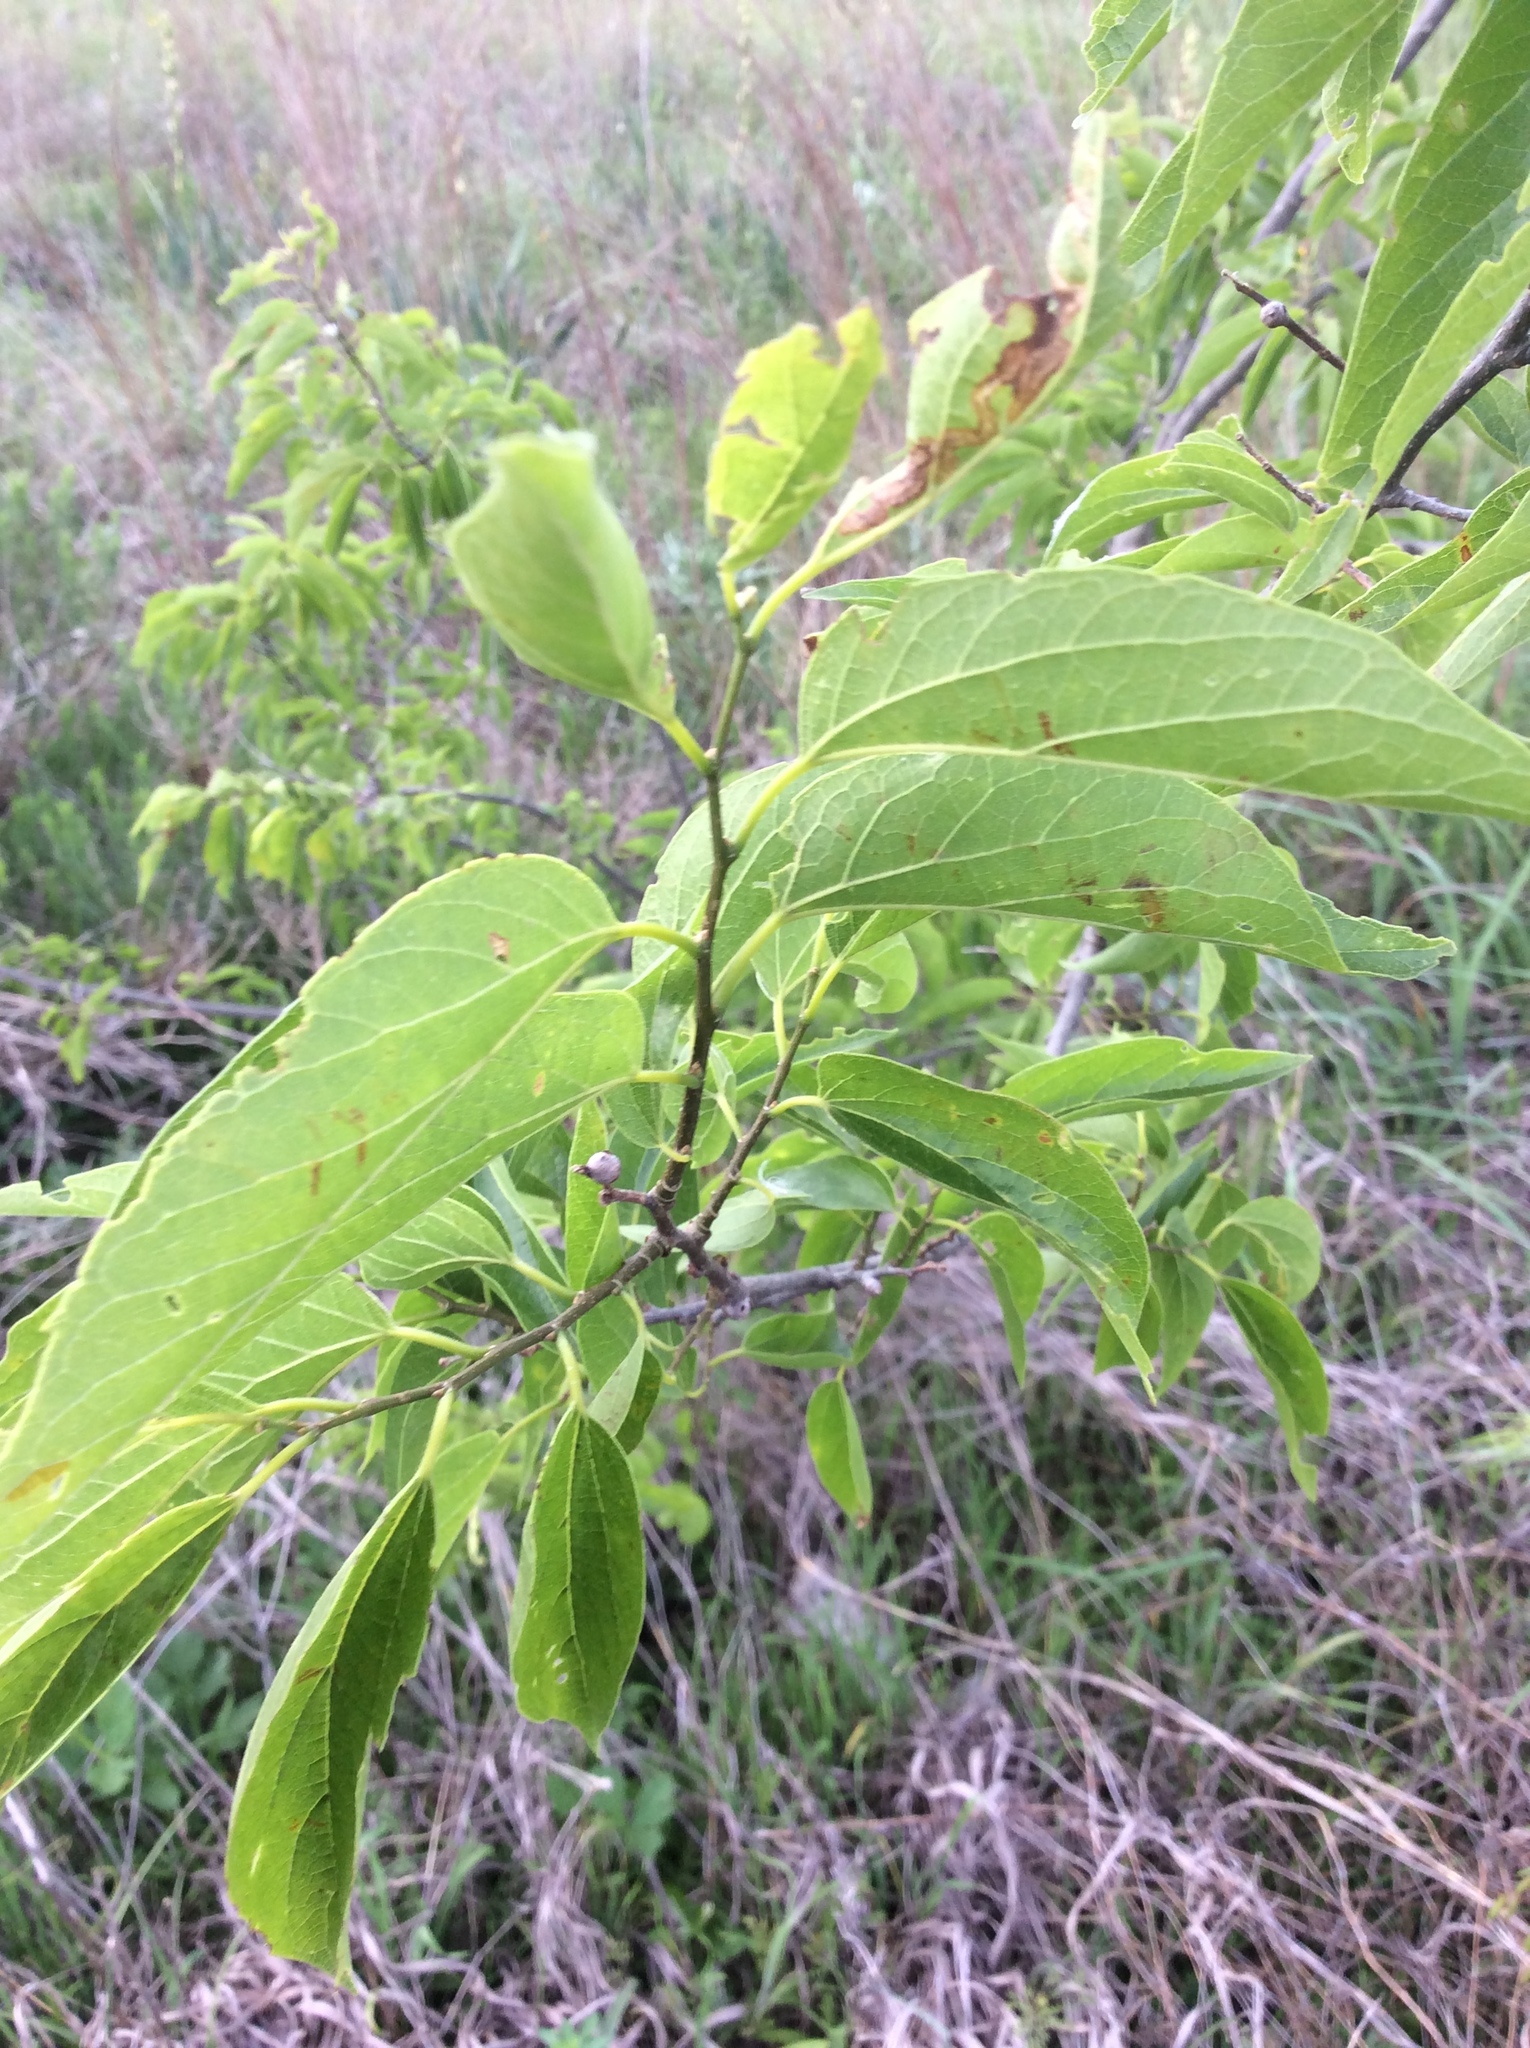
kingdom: Plantae
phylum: Tracheophyta
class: Magnoliopsida
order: Rosales
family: Cannabaceae
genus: Celtis
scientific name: Celtis laevigata
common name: Sugarberry
